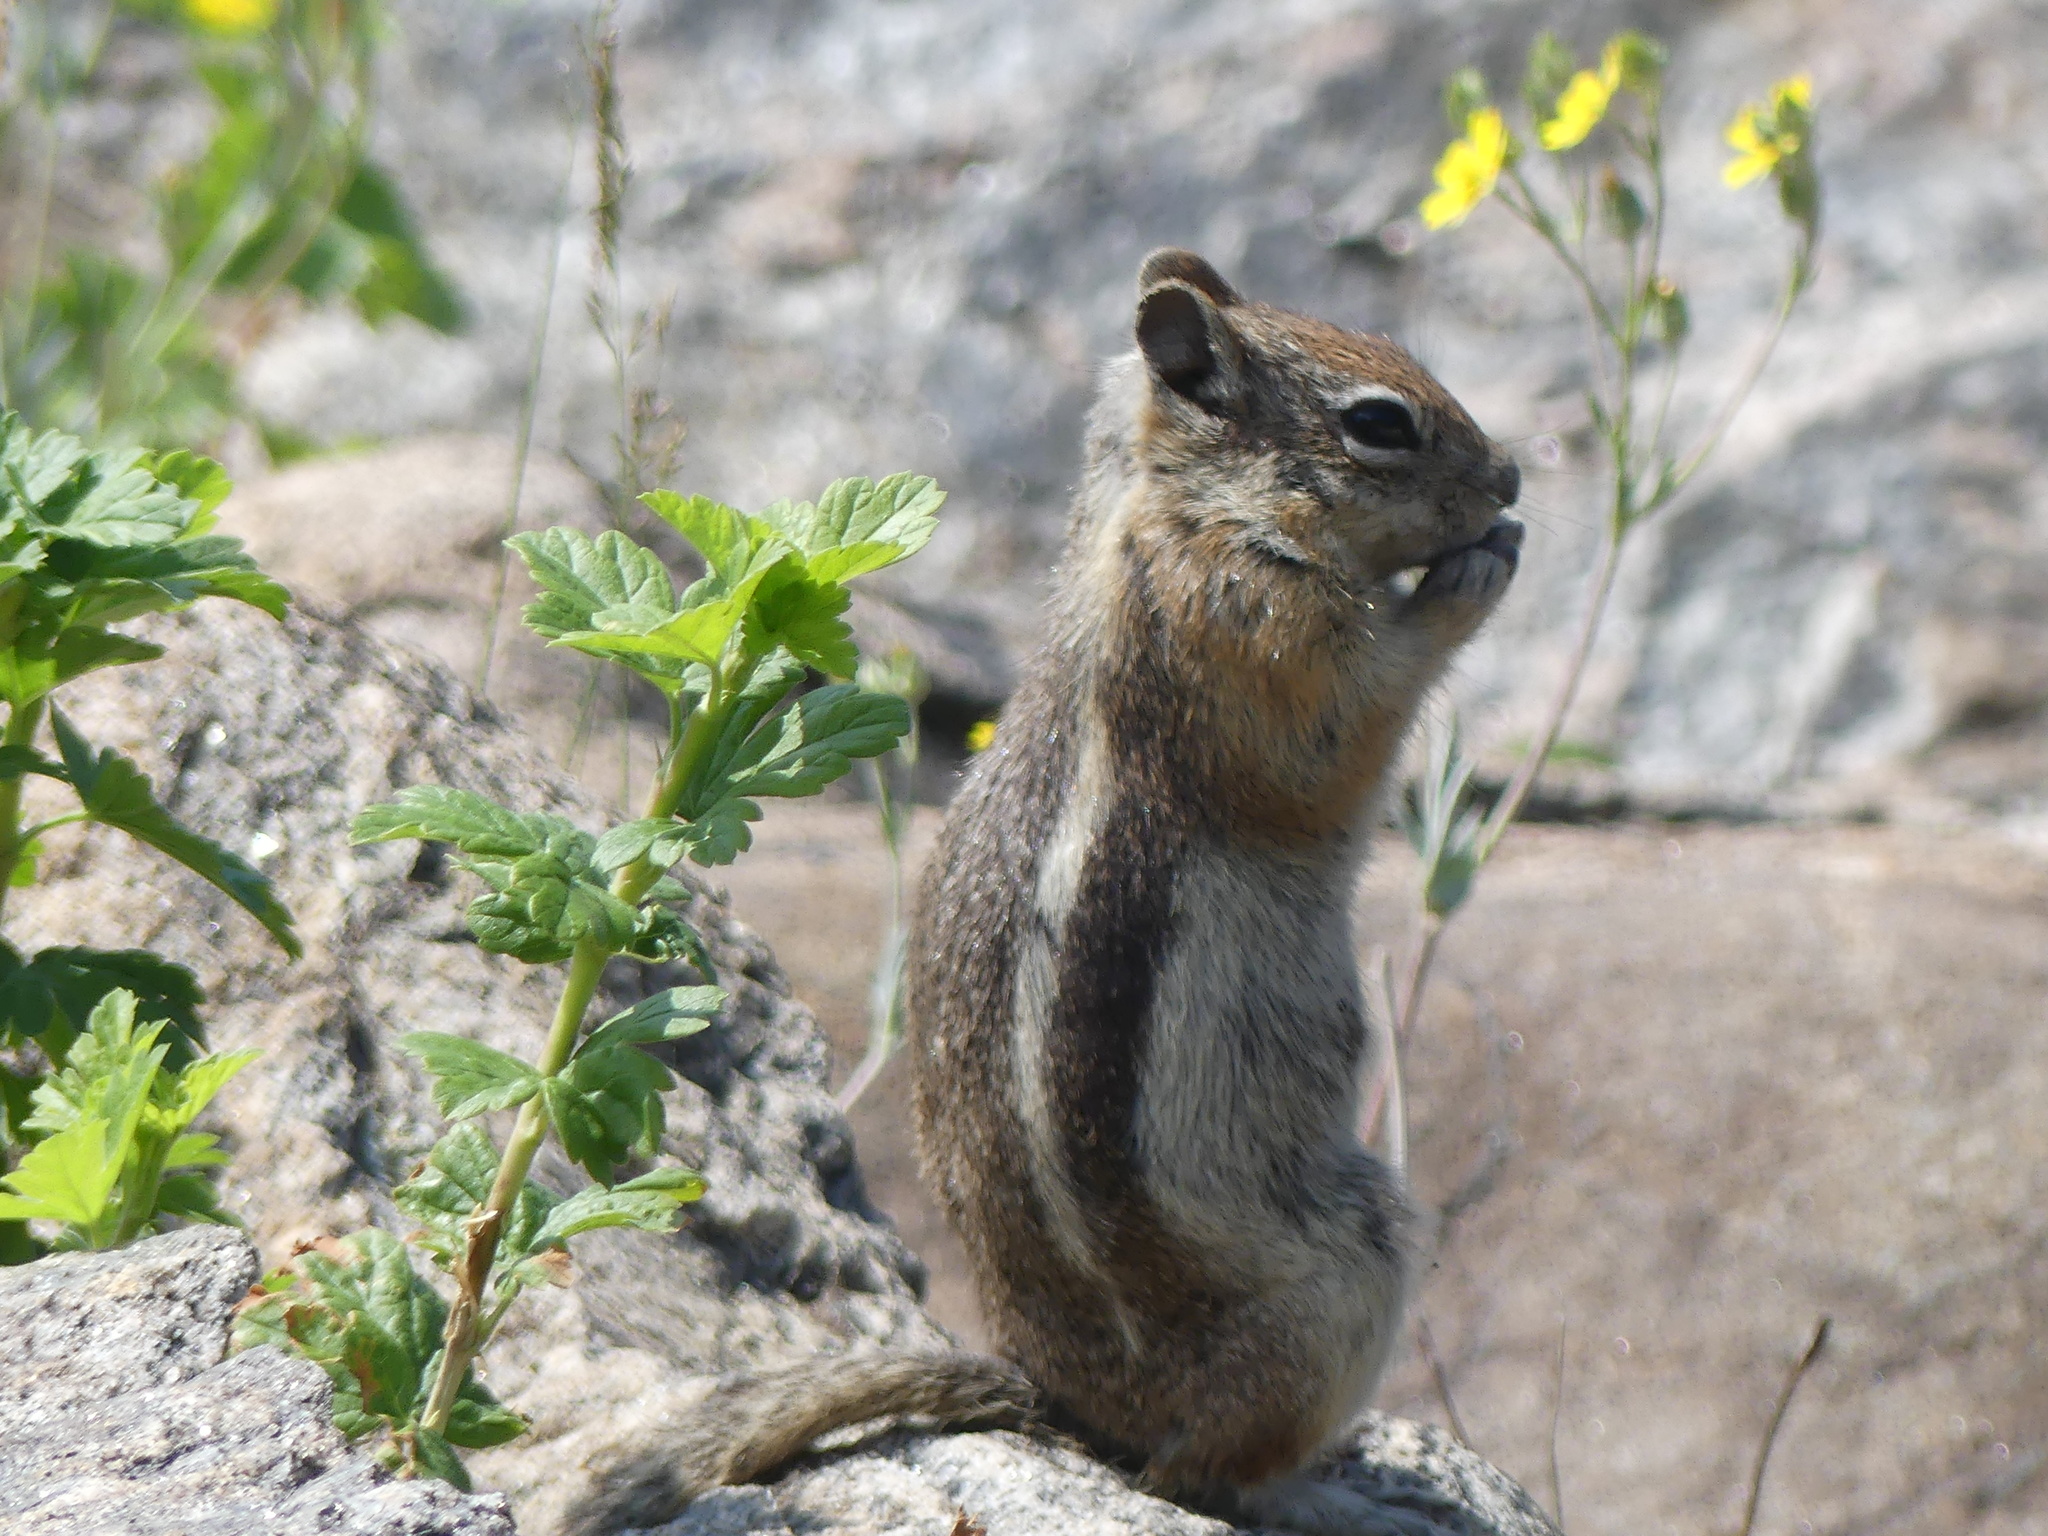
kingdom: Animalia
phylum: Chordata
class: Mammalia
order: Rodentia
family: Sciuridae
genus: Callospermophilus
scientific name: Callospermophilus lateralis
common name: Golden-mantled ground squirrel
